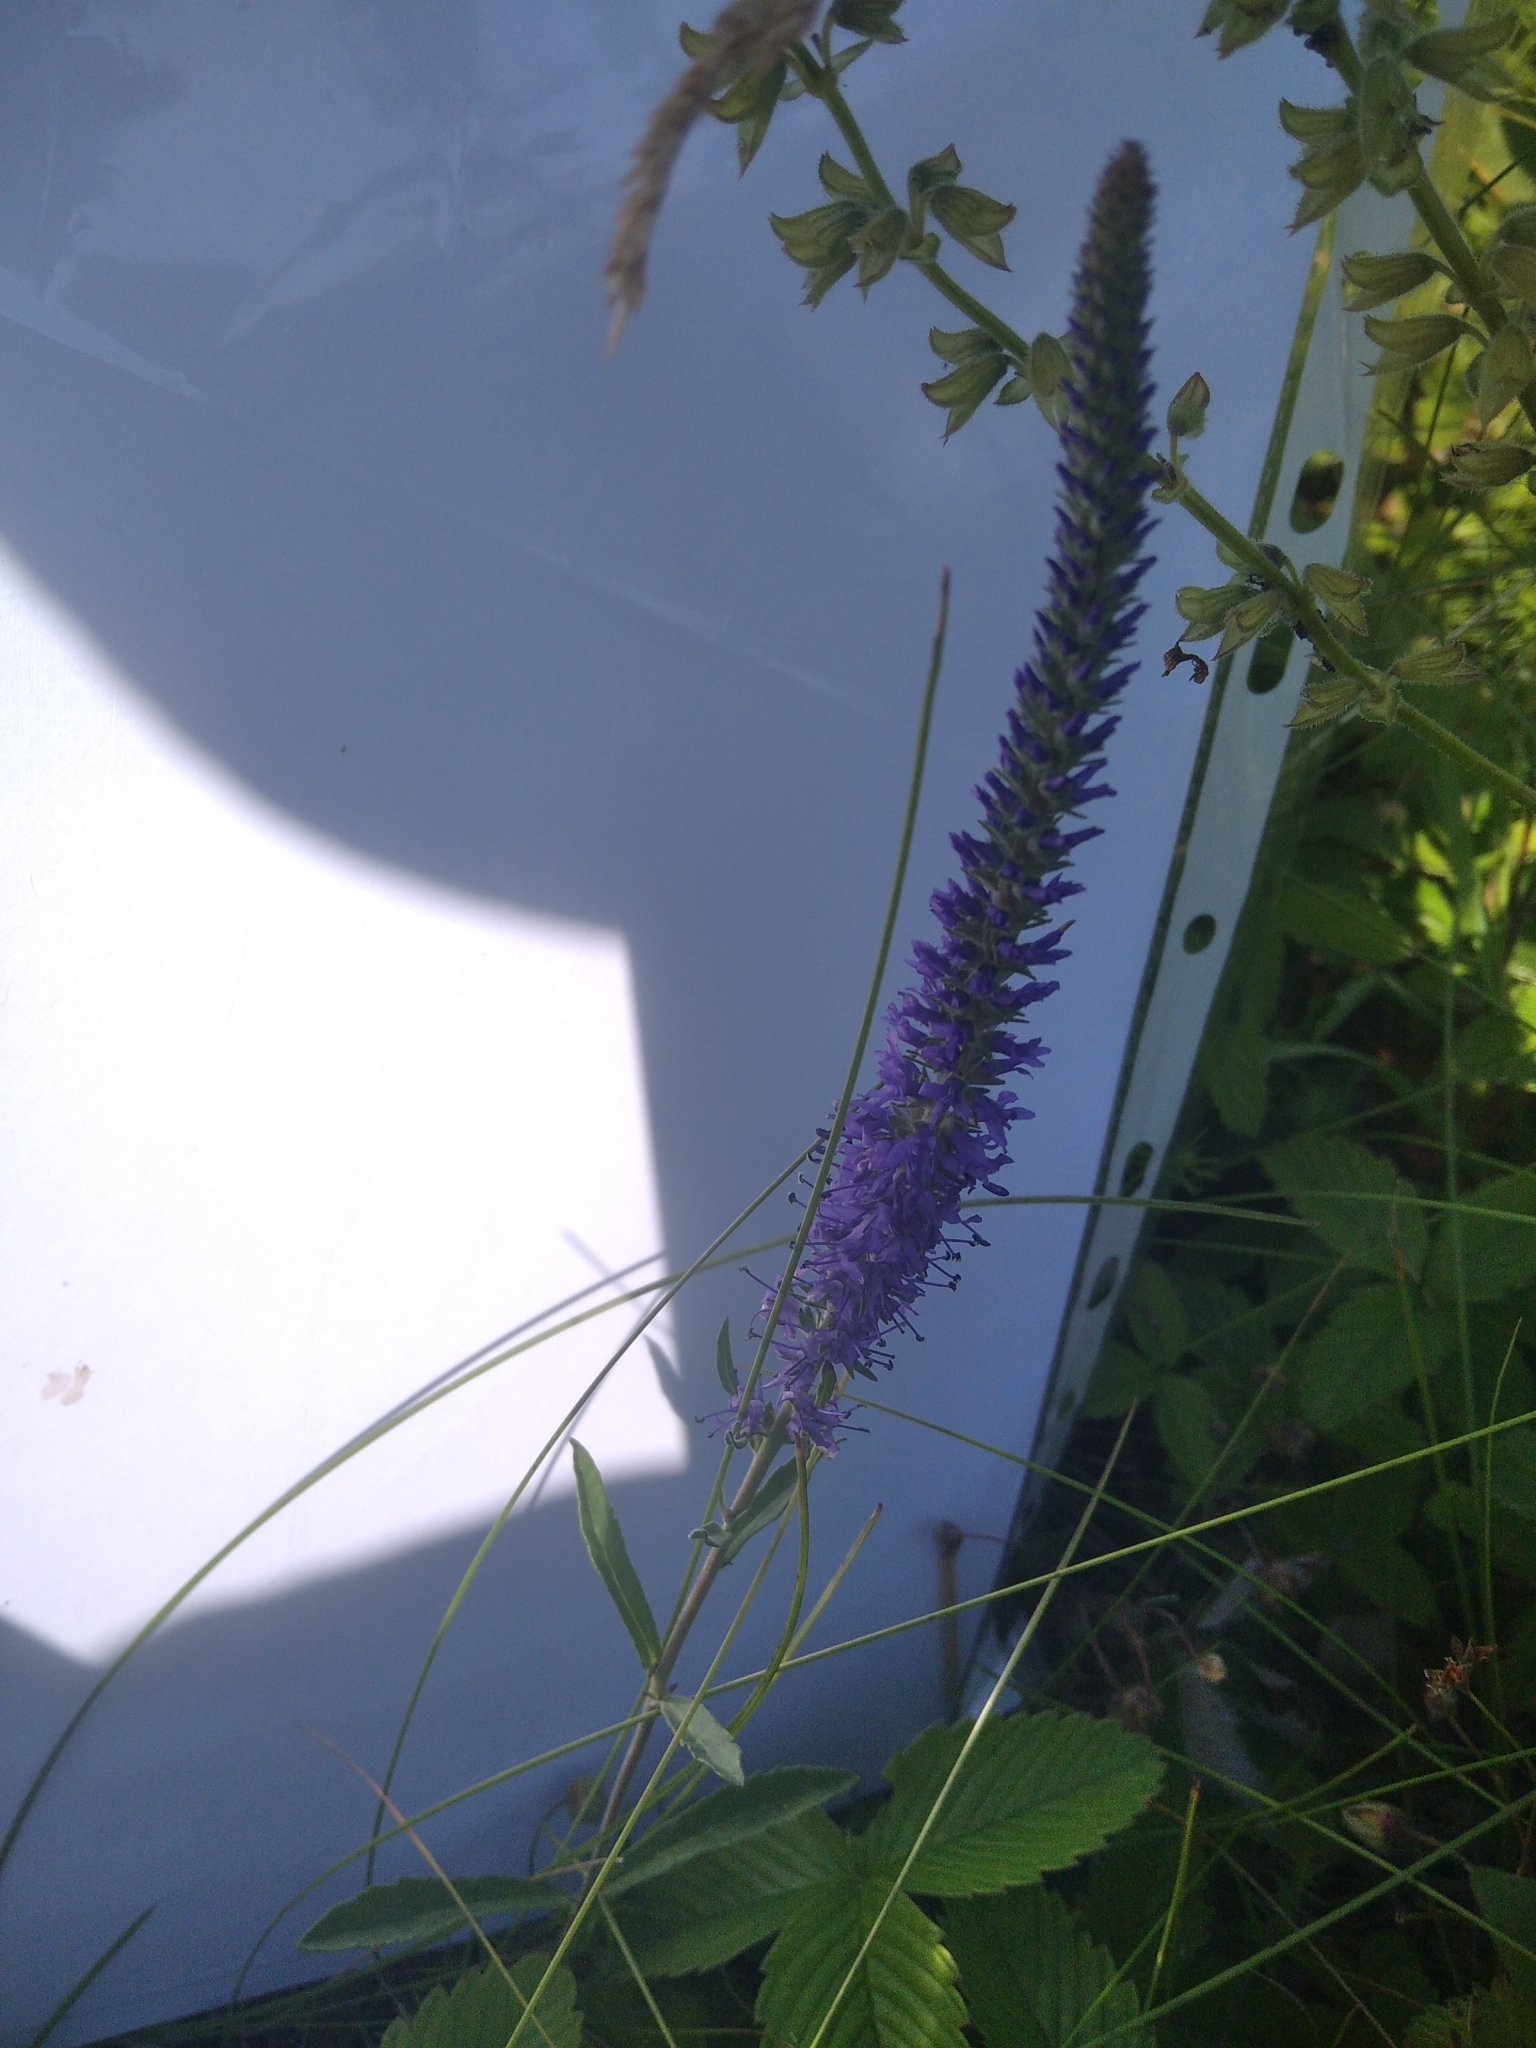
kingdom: Plantae
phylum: Tracheophyta
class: Magnoliopsida
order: Lamiales
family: Plantaginaceae
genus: Veronica
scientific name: Veronica spicata
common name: Spiked speedwell
